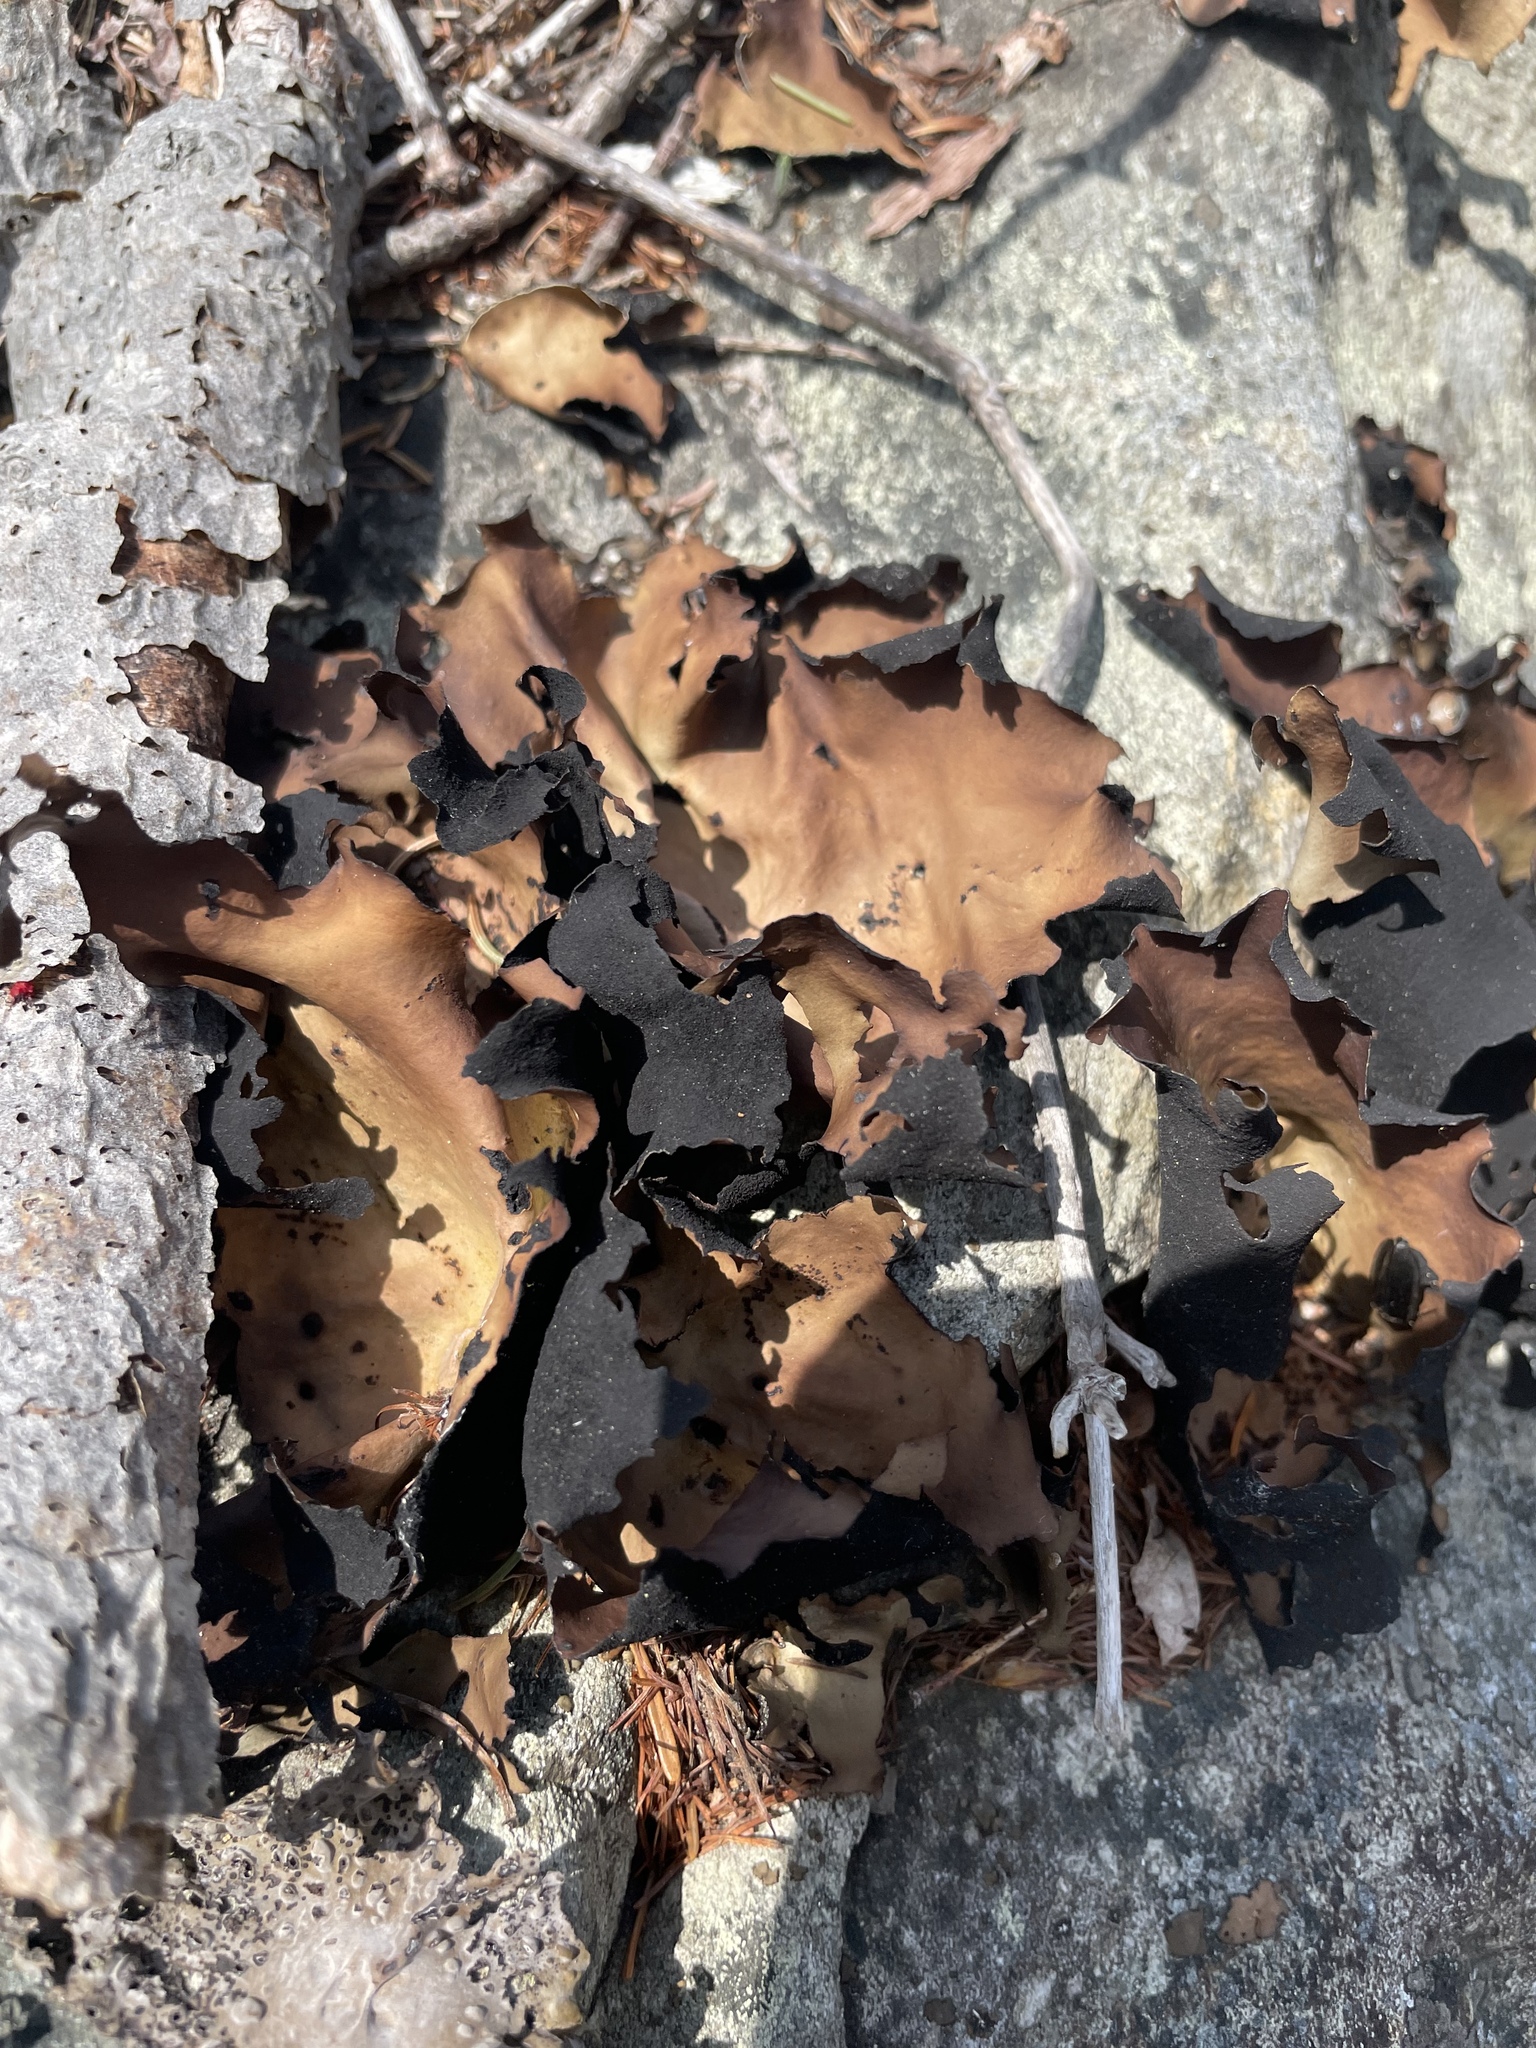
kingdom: Fungi
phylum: Ascomycota
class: Lecanoromycetes
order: Umbilicariales
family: Umbilicariaceae
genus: Umbilicaria
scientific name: Umbilicaria mammulata
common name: Smooth rock tripe
